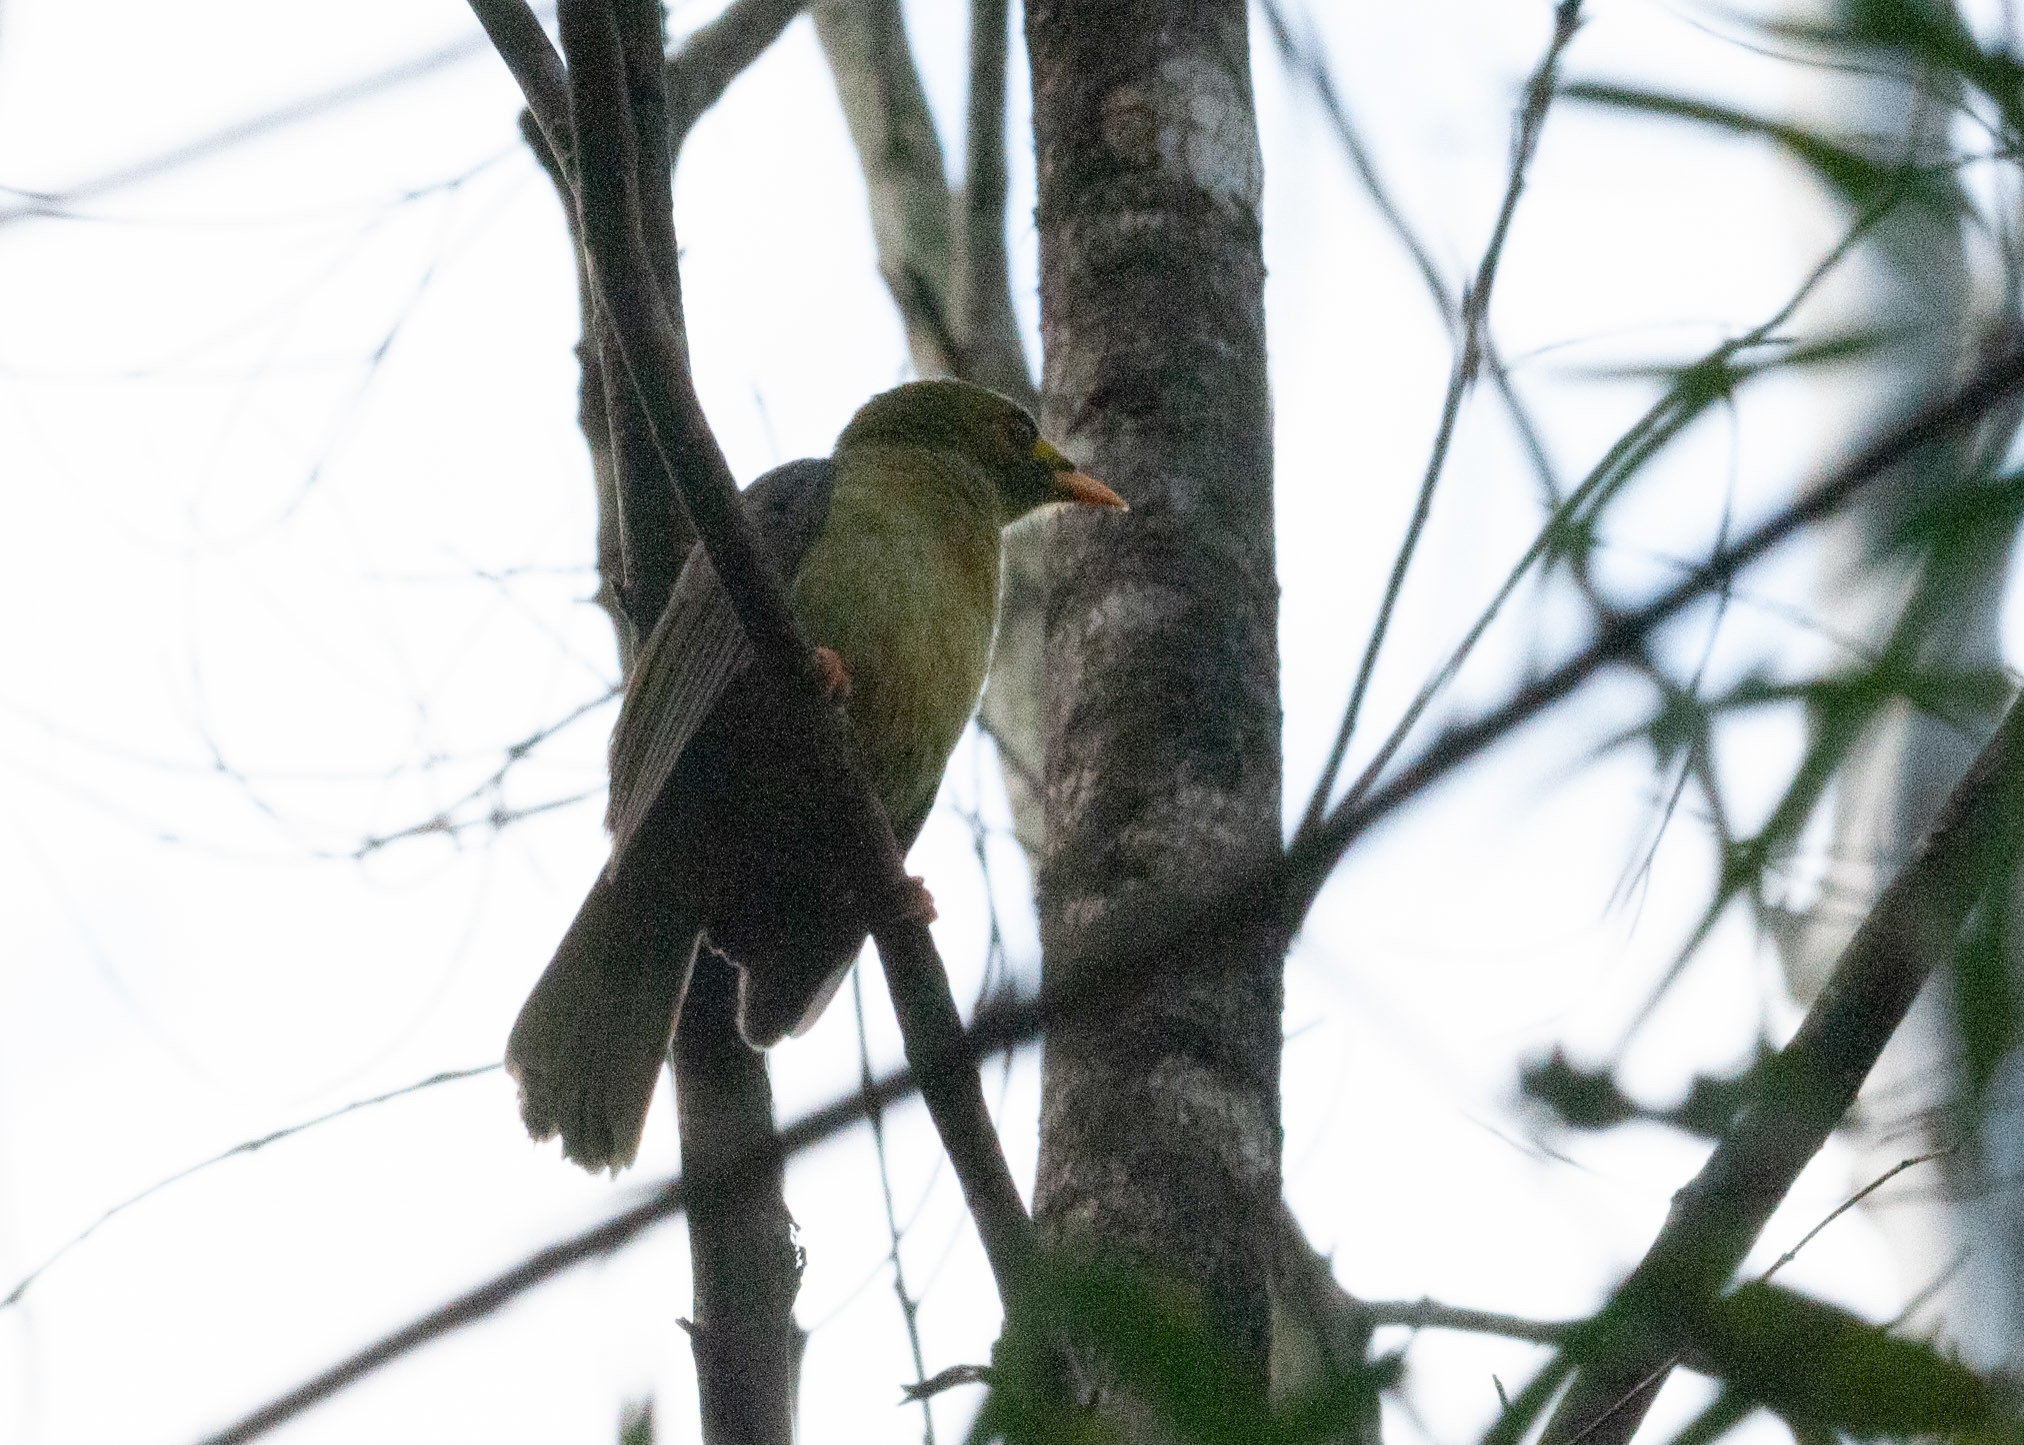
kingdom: Animalia
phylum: Chordata
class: Aves
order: Passeriformes
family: Meliphagidae
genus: Manorina
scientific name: Manorina melanophrys
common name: Bell miner
